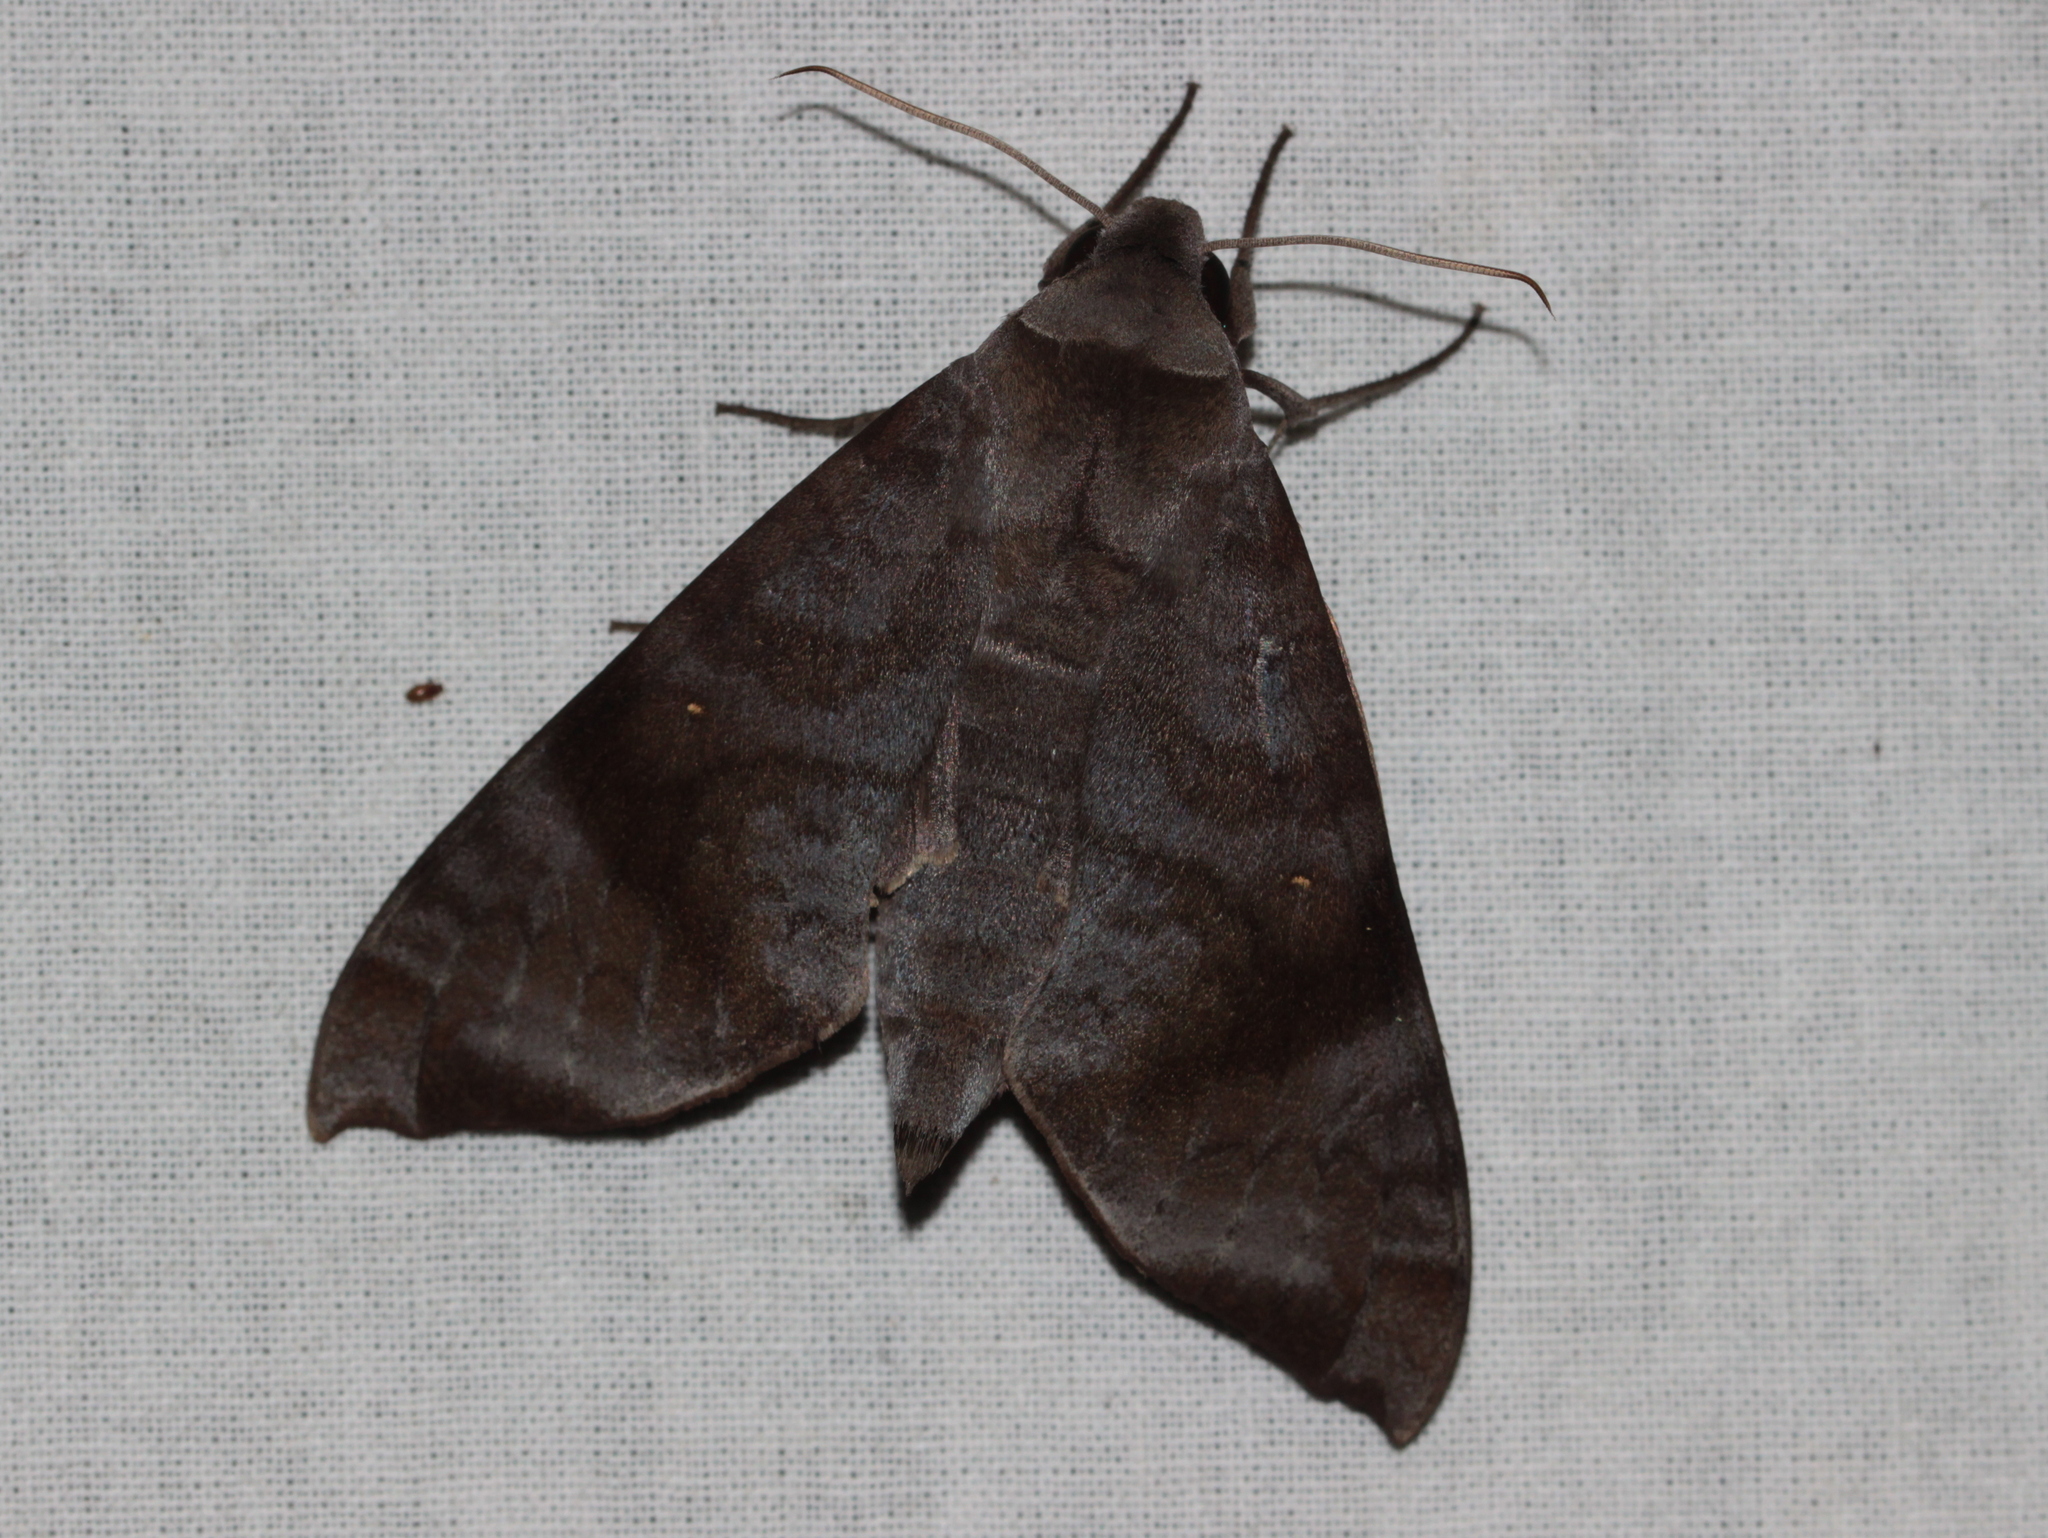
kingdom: Animalia
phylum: Arthropoda
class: Insecta
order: Lepidoptera
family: Sphingidae
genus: Acosmeryx
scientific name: Acosmeryx akanshi
